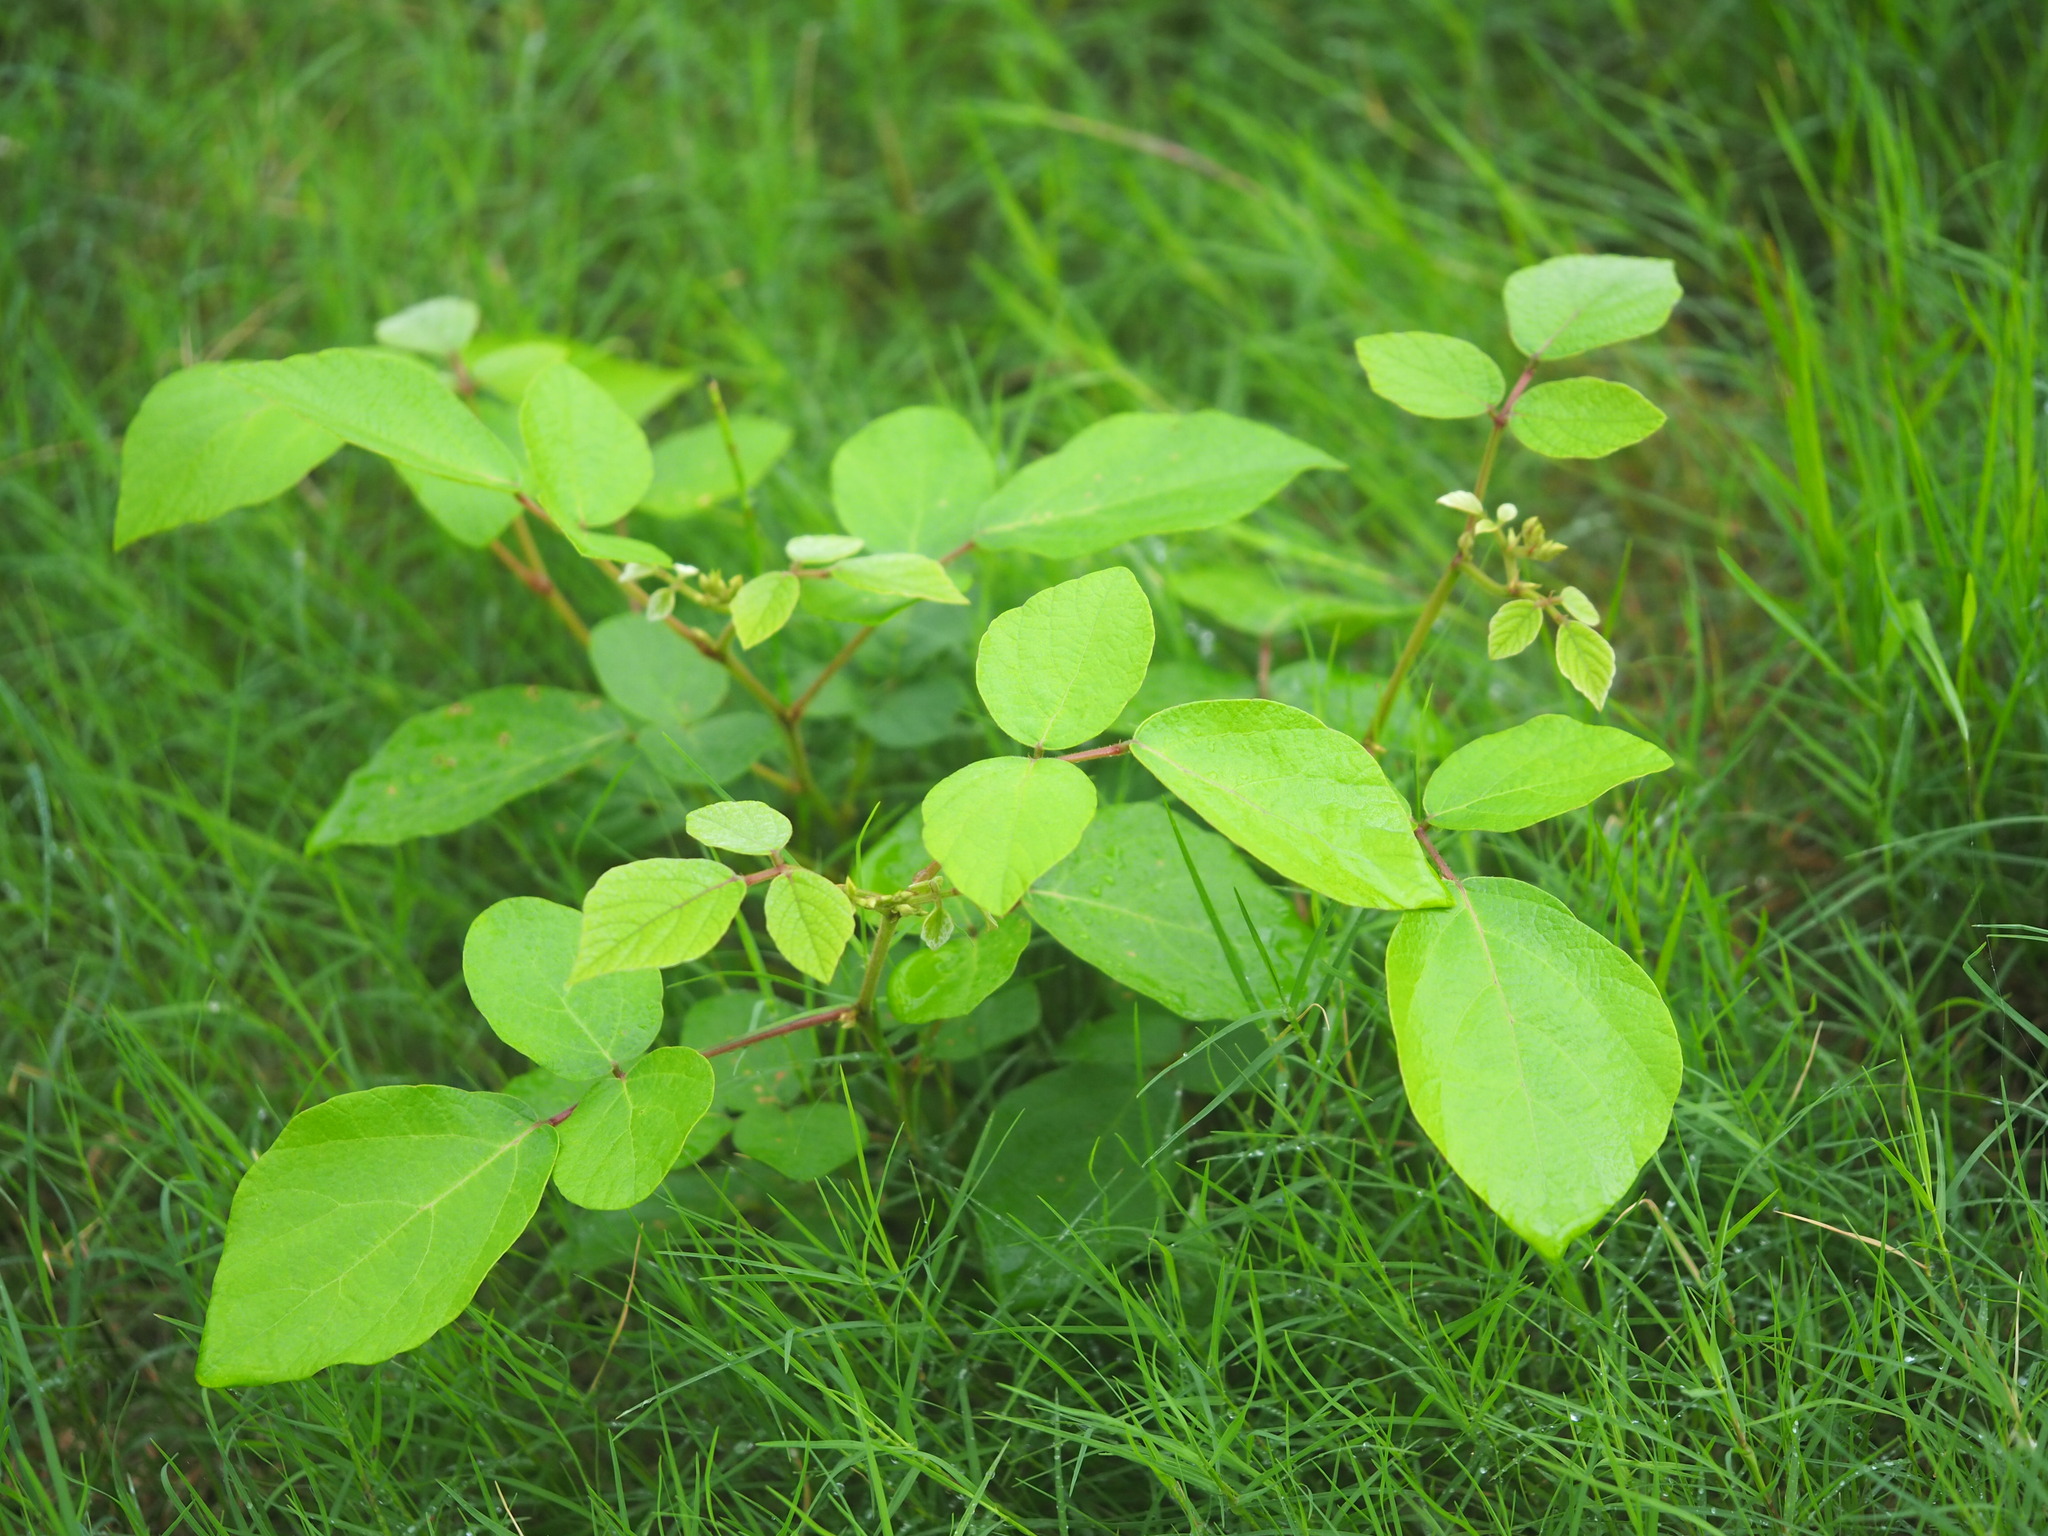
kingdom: Plantae
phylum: Tracheophyta
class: Magnoliopsida
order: Fabales
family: Fabaceae
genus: Puhuaea
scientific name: Puhuaea sequax
